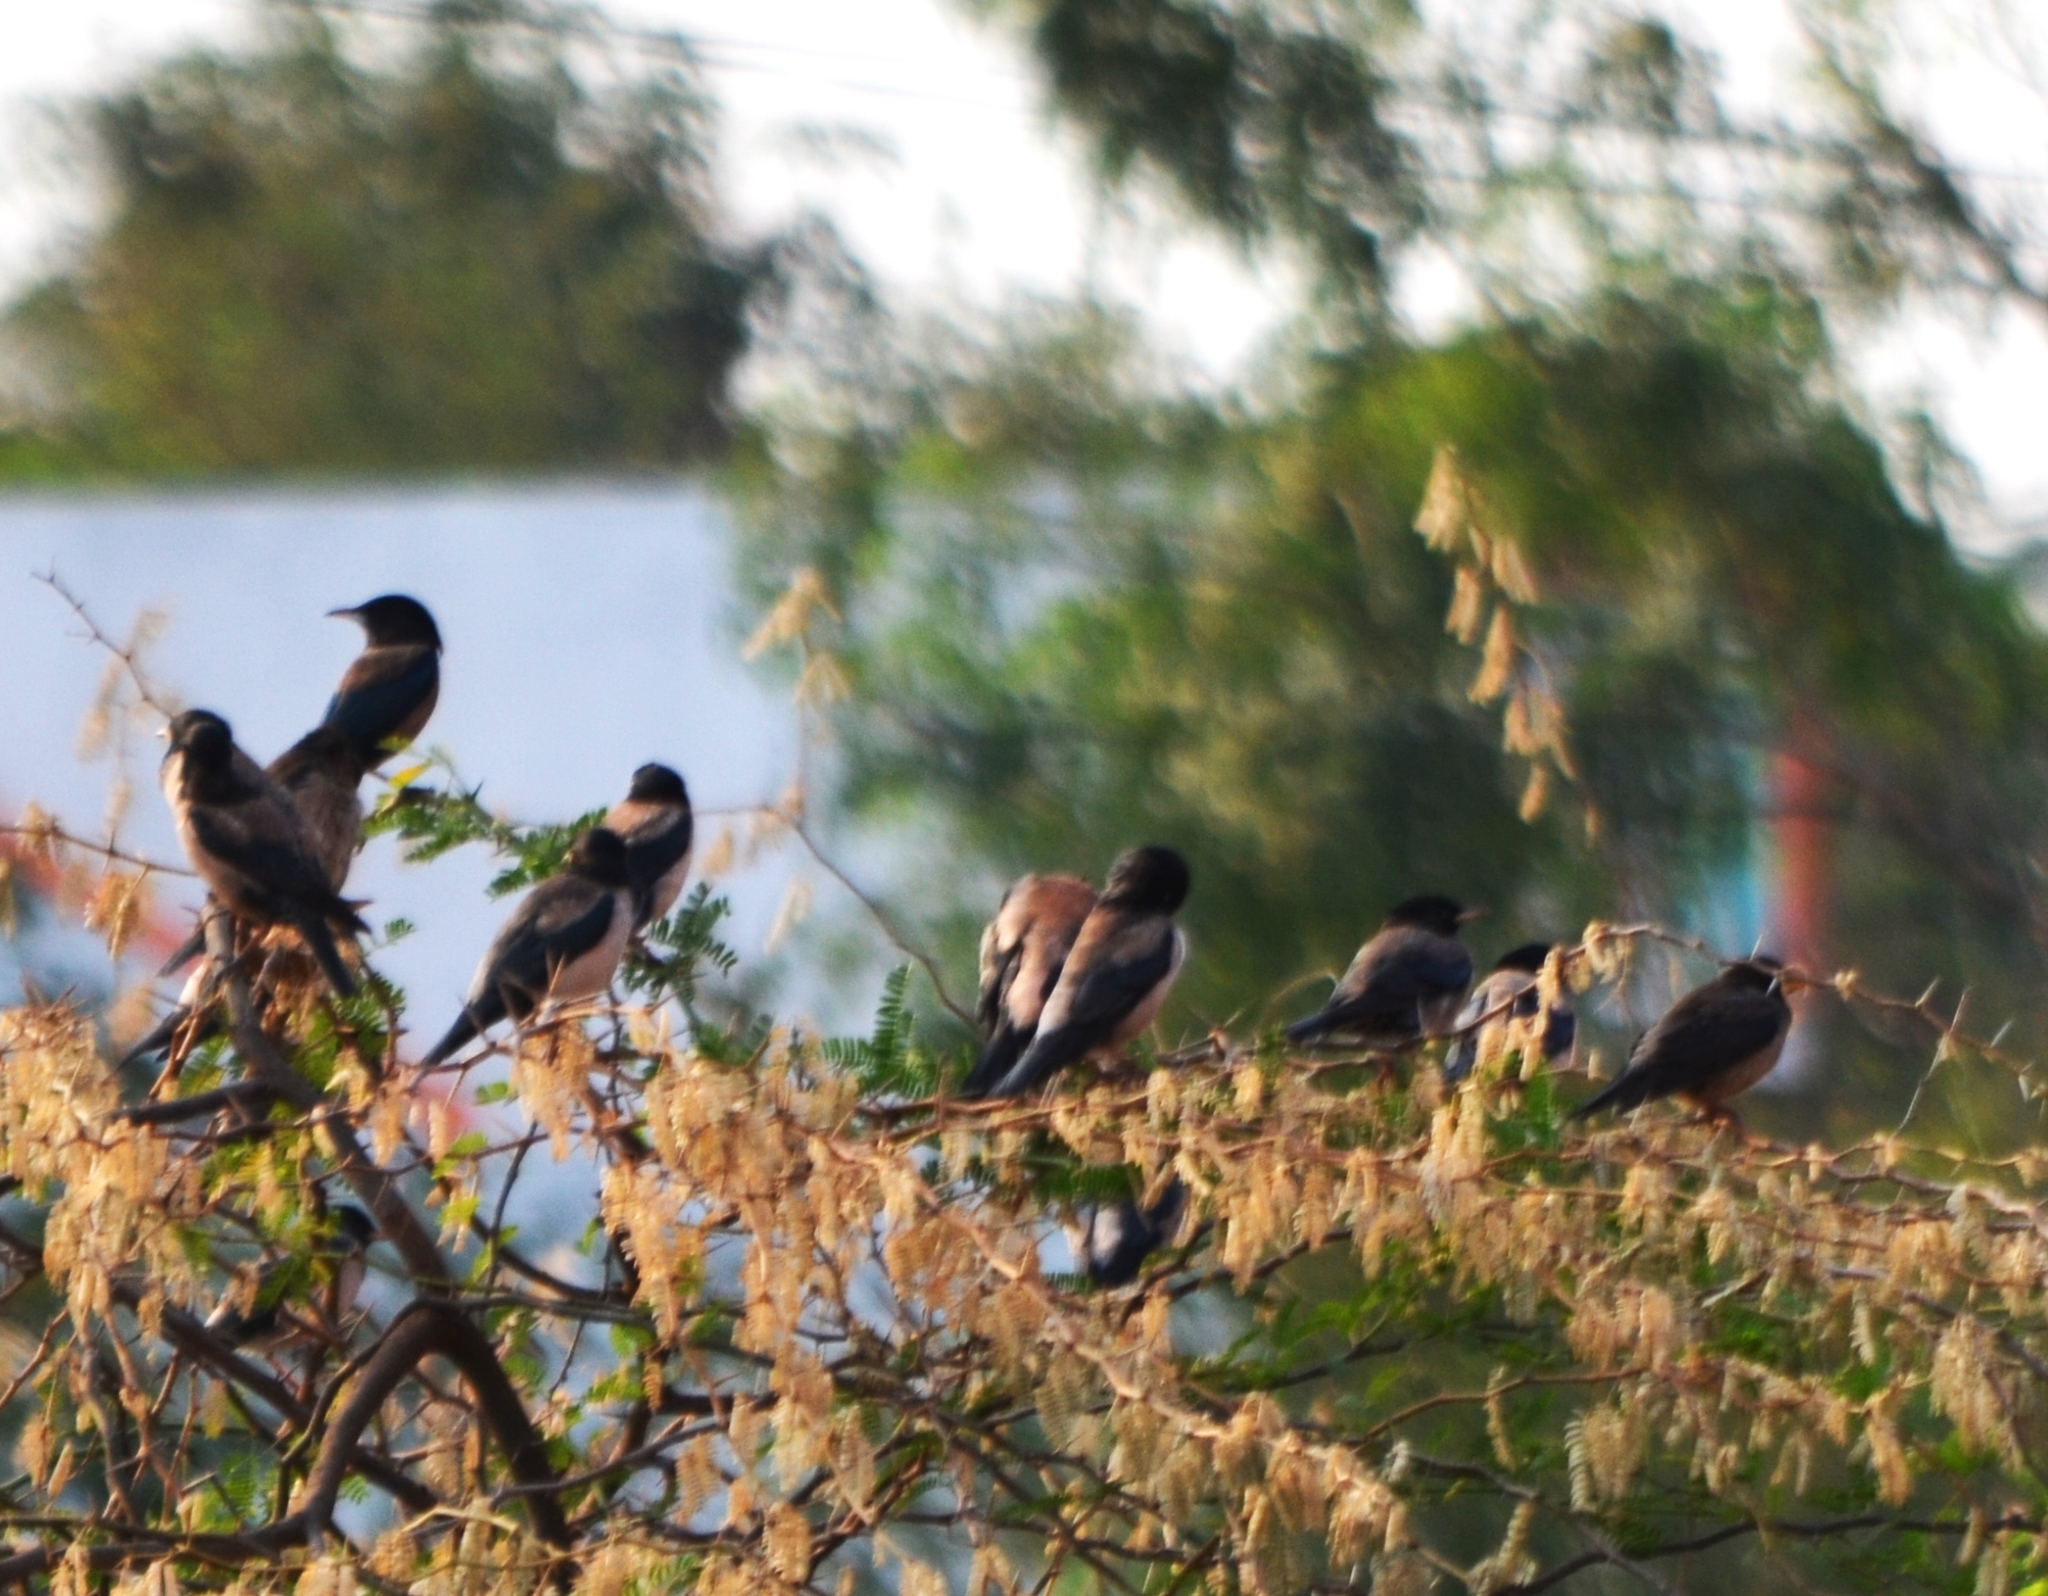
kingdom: Animalia
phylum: Chordata
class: Aves
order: Passeriformes
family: Sturnidae
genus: Pastor
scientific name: Pastor roseus
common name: Rosy starling
